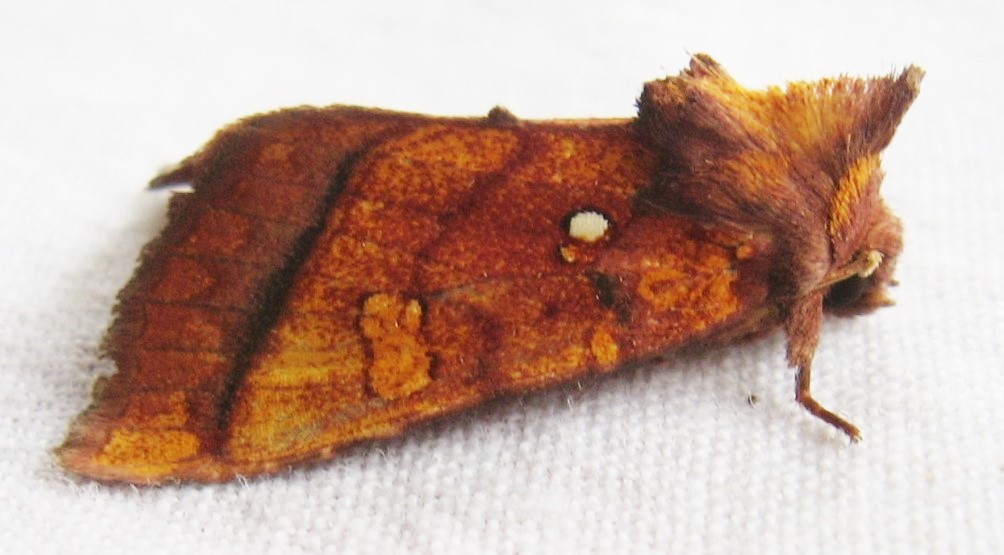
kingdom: Animalia
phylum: Arthropoda
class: Insecta
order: Lepidoptera
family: Noctuidae
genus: Papaipema
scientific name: Papaipema leucostigma
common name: Columbine borer moth
